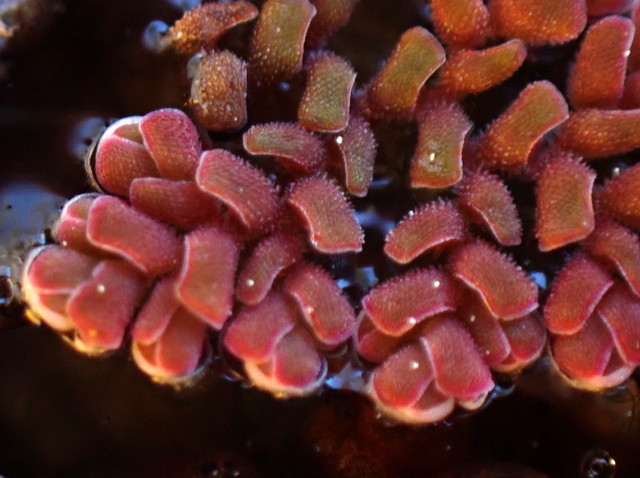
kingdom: Plantae
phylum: Tracheophyta
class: Polypodiopsida
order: Salviniales
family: Salviniaceae
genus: Azolla
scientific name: Azolla pinnata
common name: Ferny azolla
